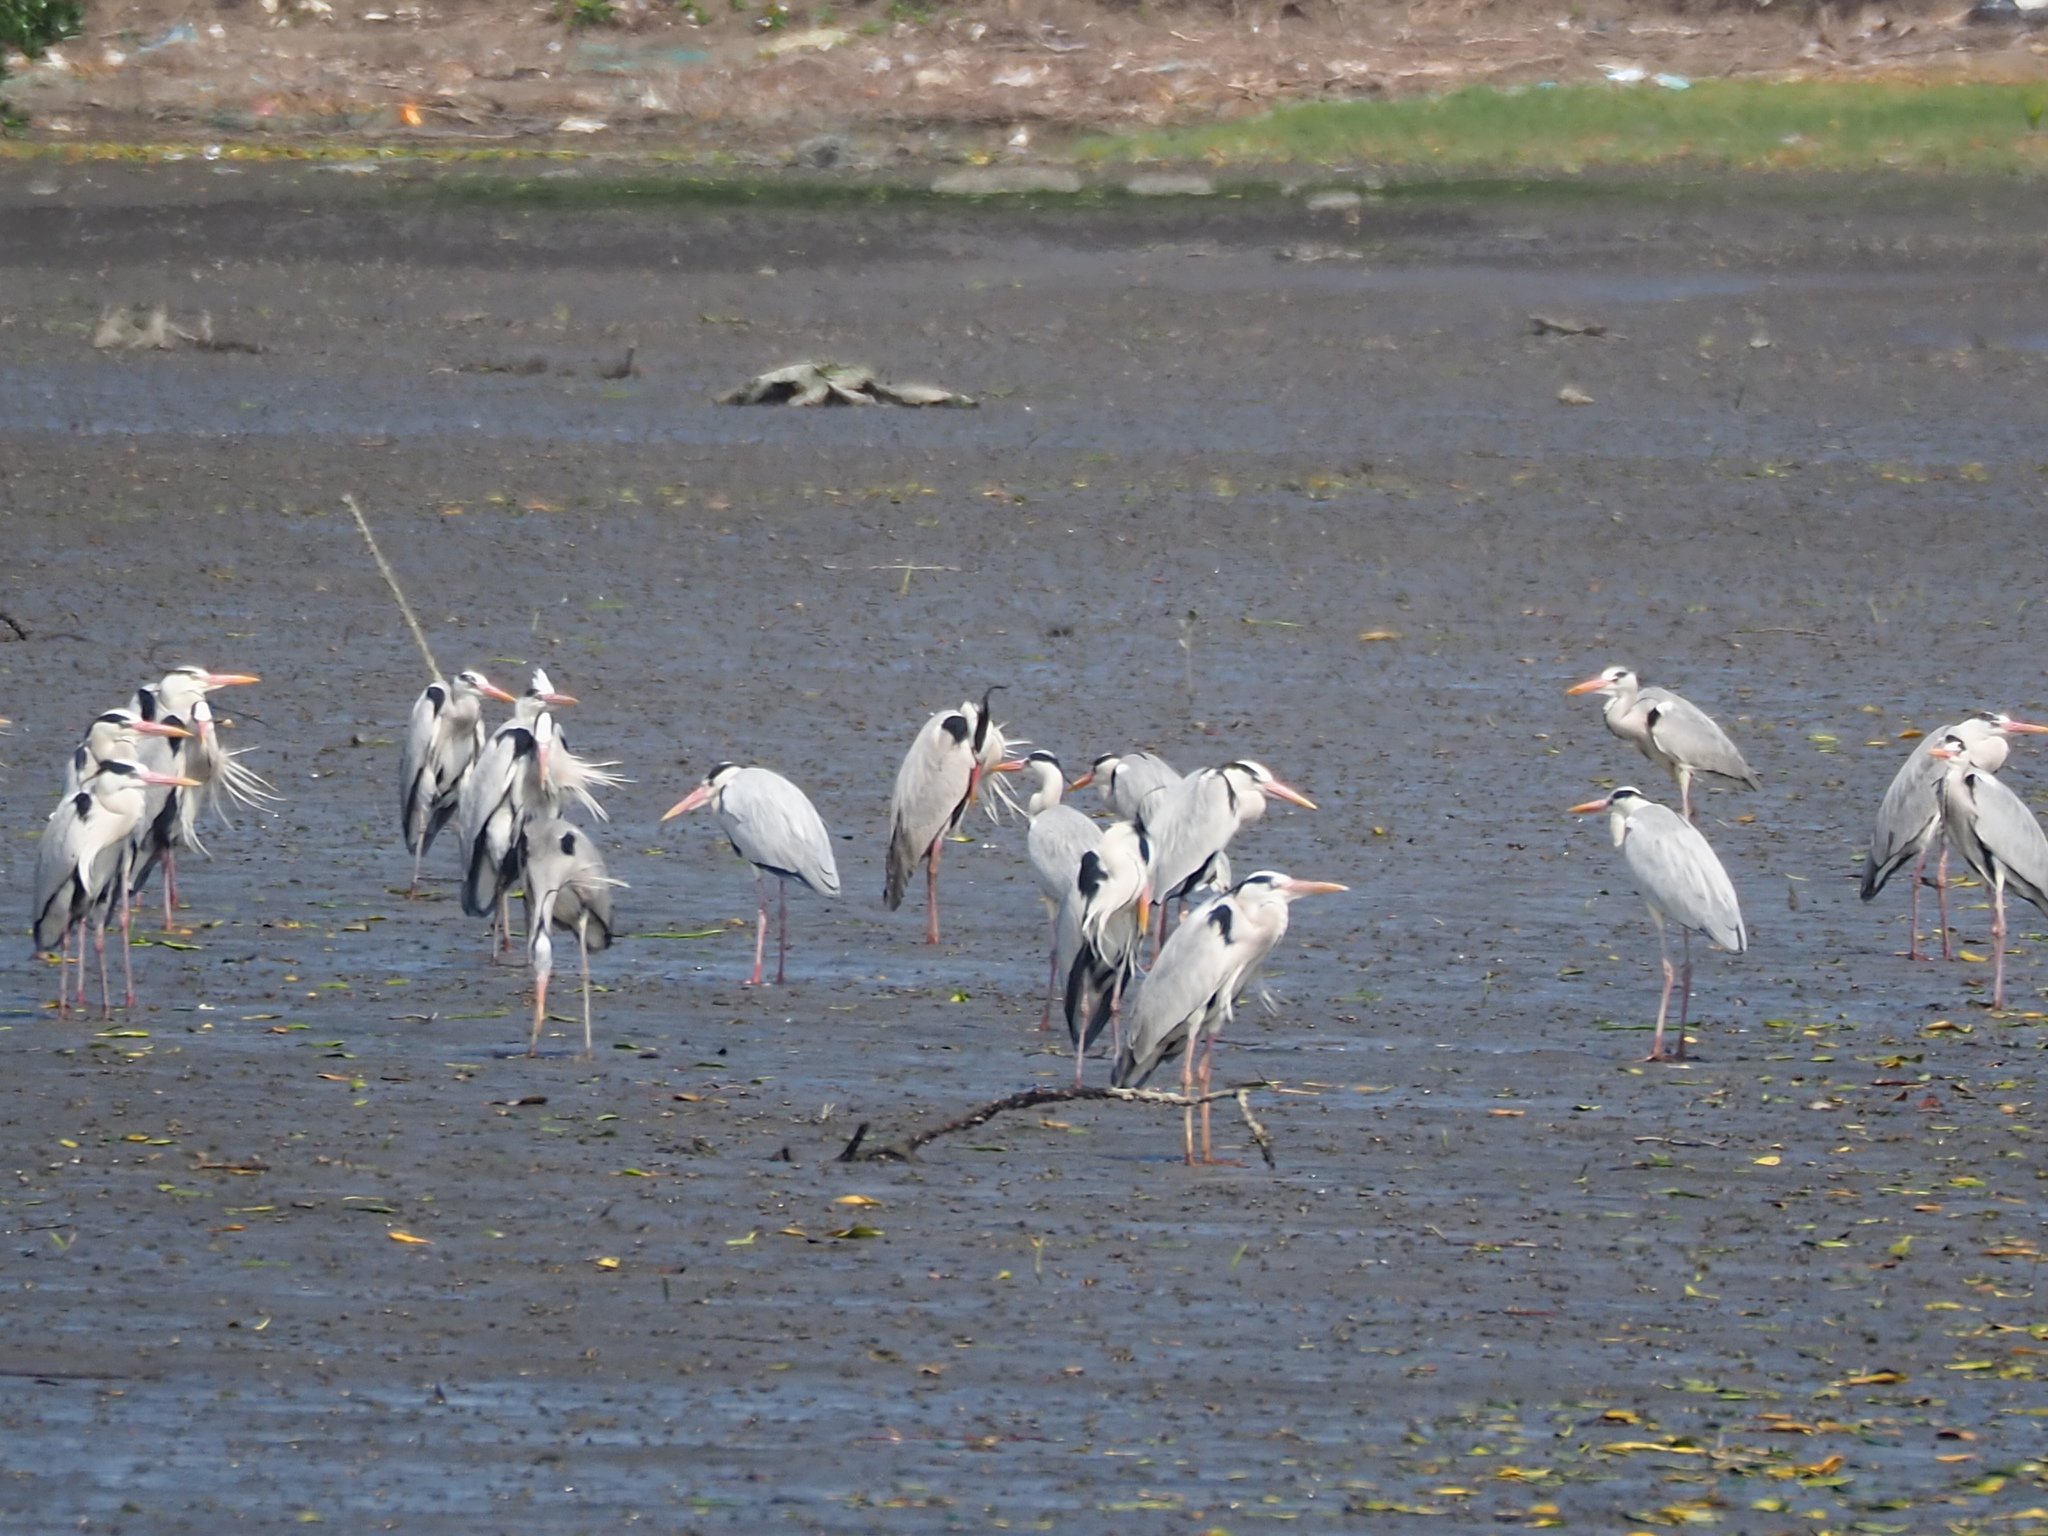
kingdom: Animalia
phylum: Chordata
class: Aves
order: Pelecaniformes
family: Ardeidae
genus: Ardea
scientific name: Ardea cinerea
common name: Grey heron
